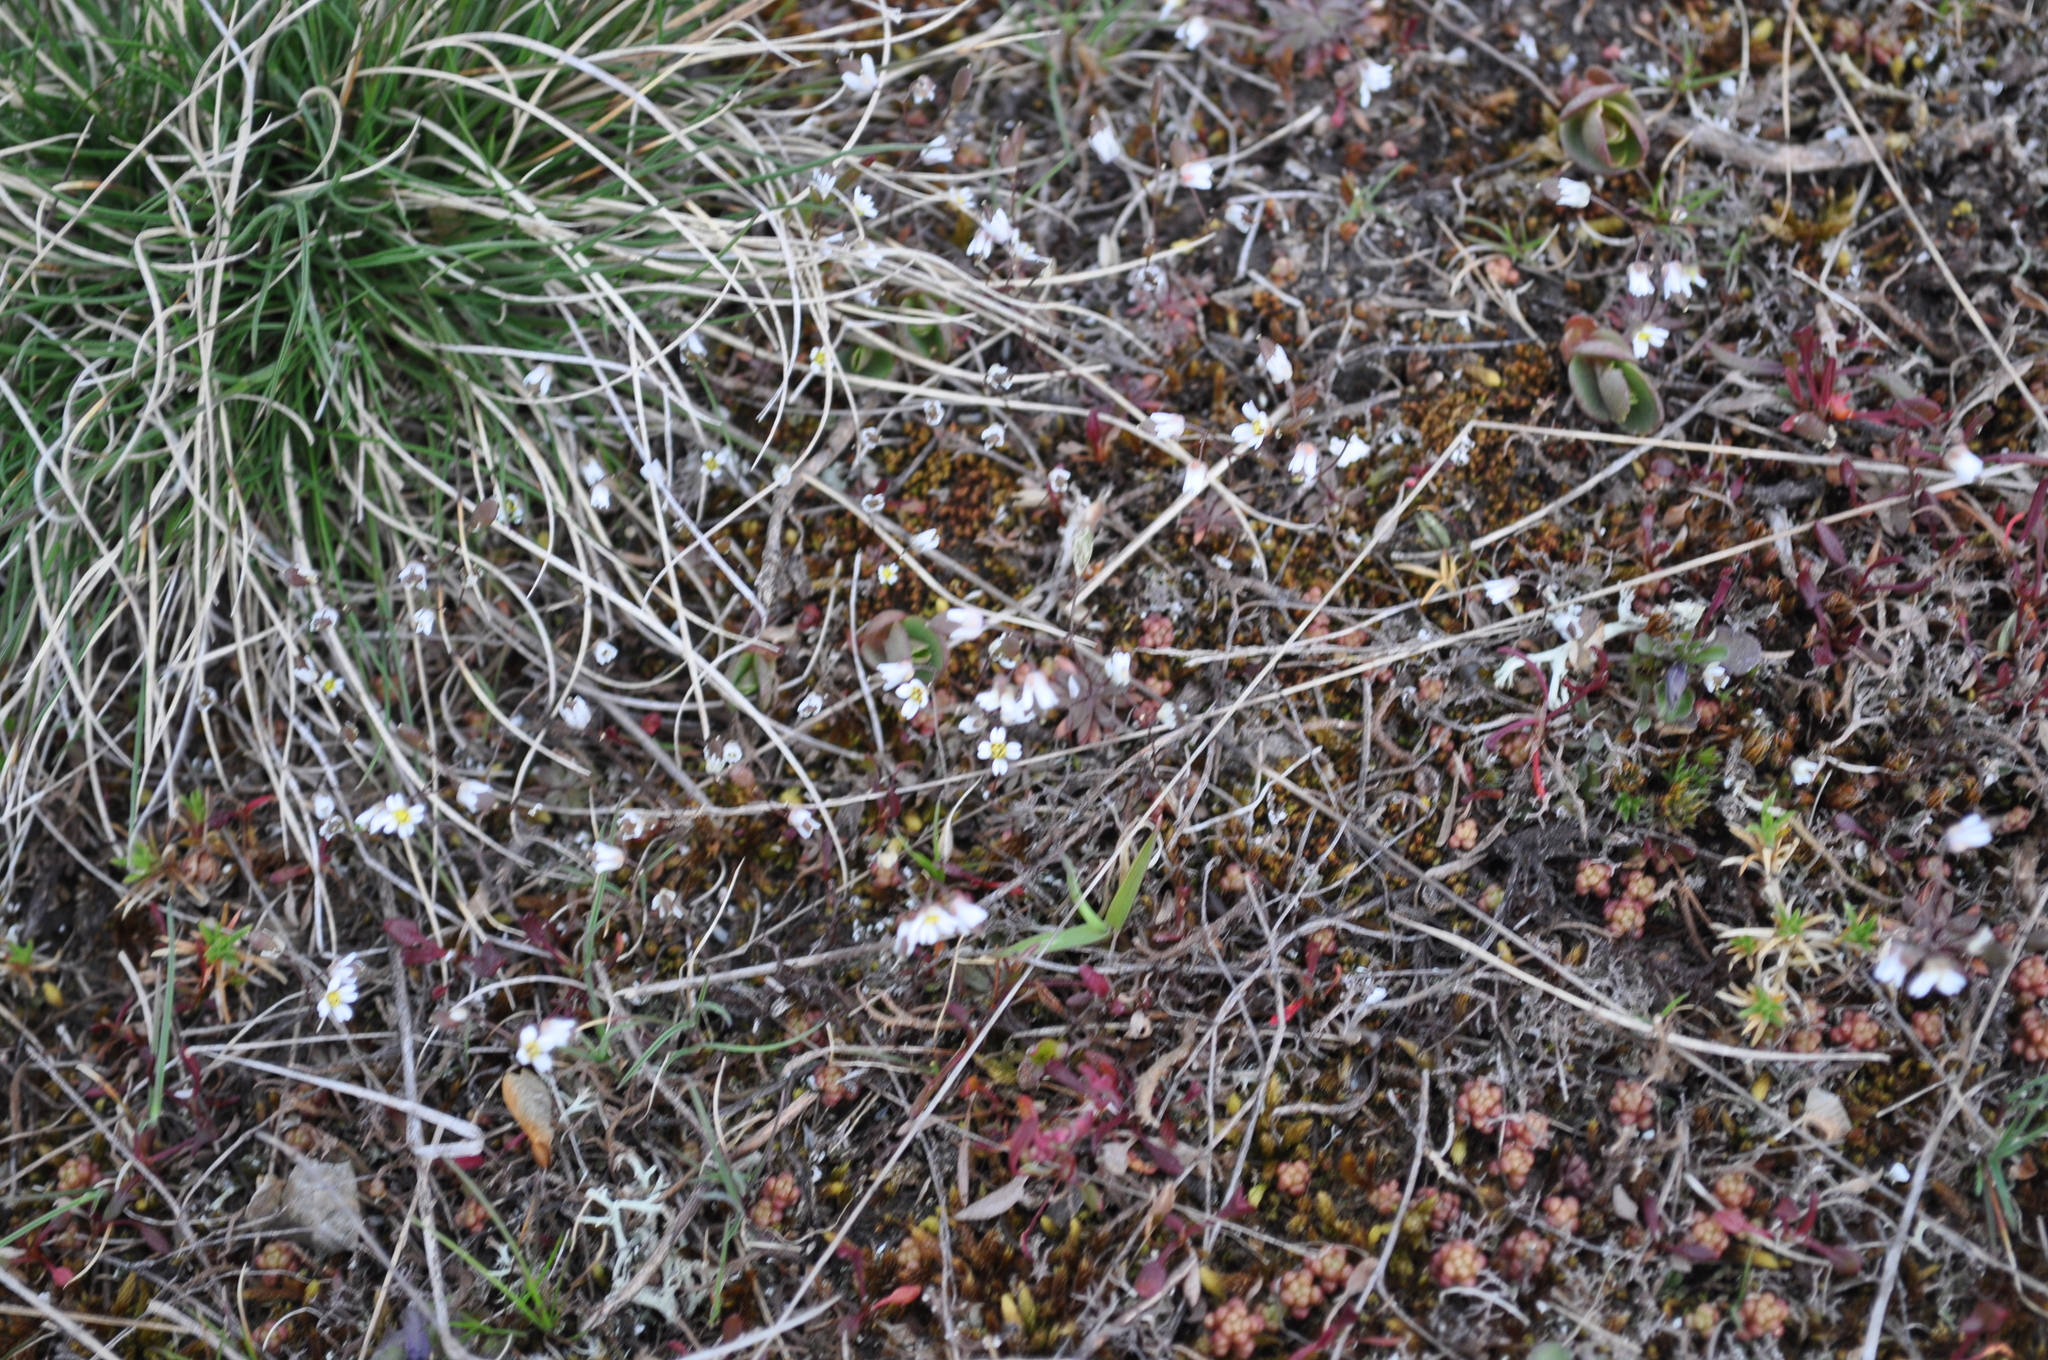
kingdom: Plantae
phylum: Tracheophyta
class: Magnoliopsida
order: Brassicales
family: Brassicaceae
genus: Draba
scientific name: Draba verna
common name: Spring draba
